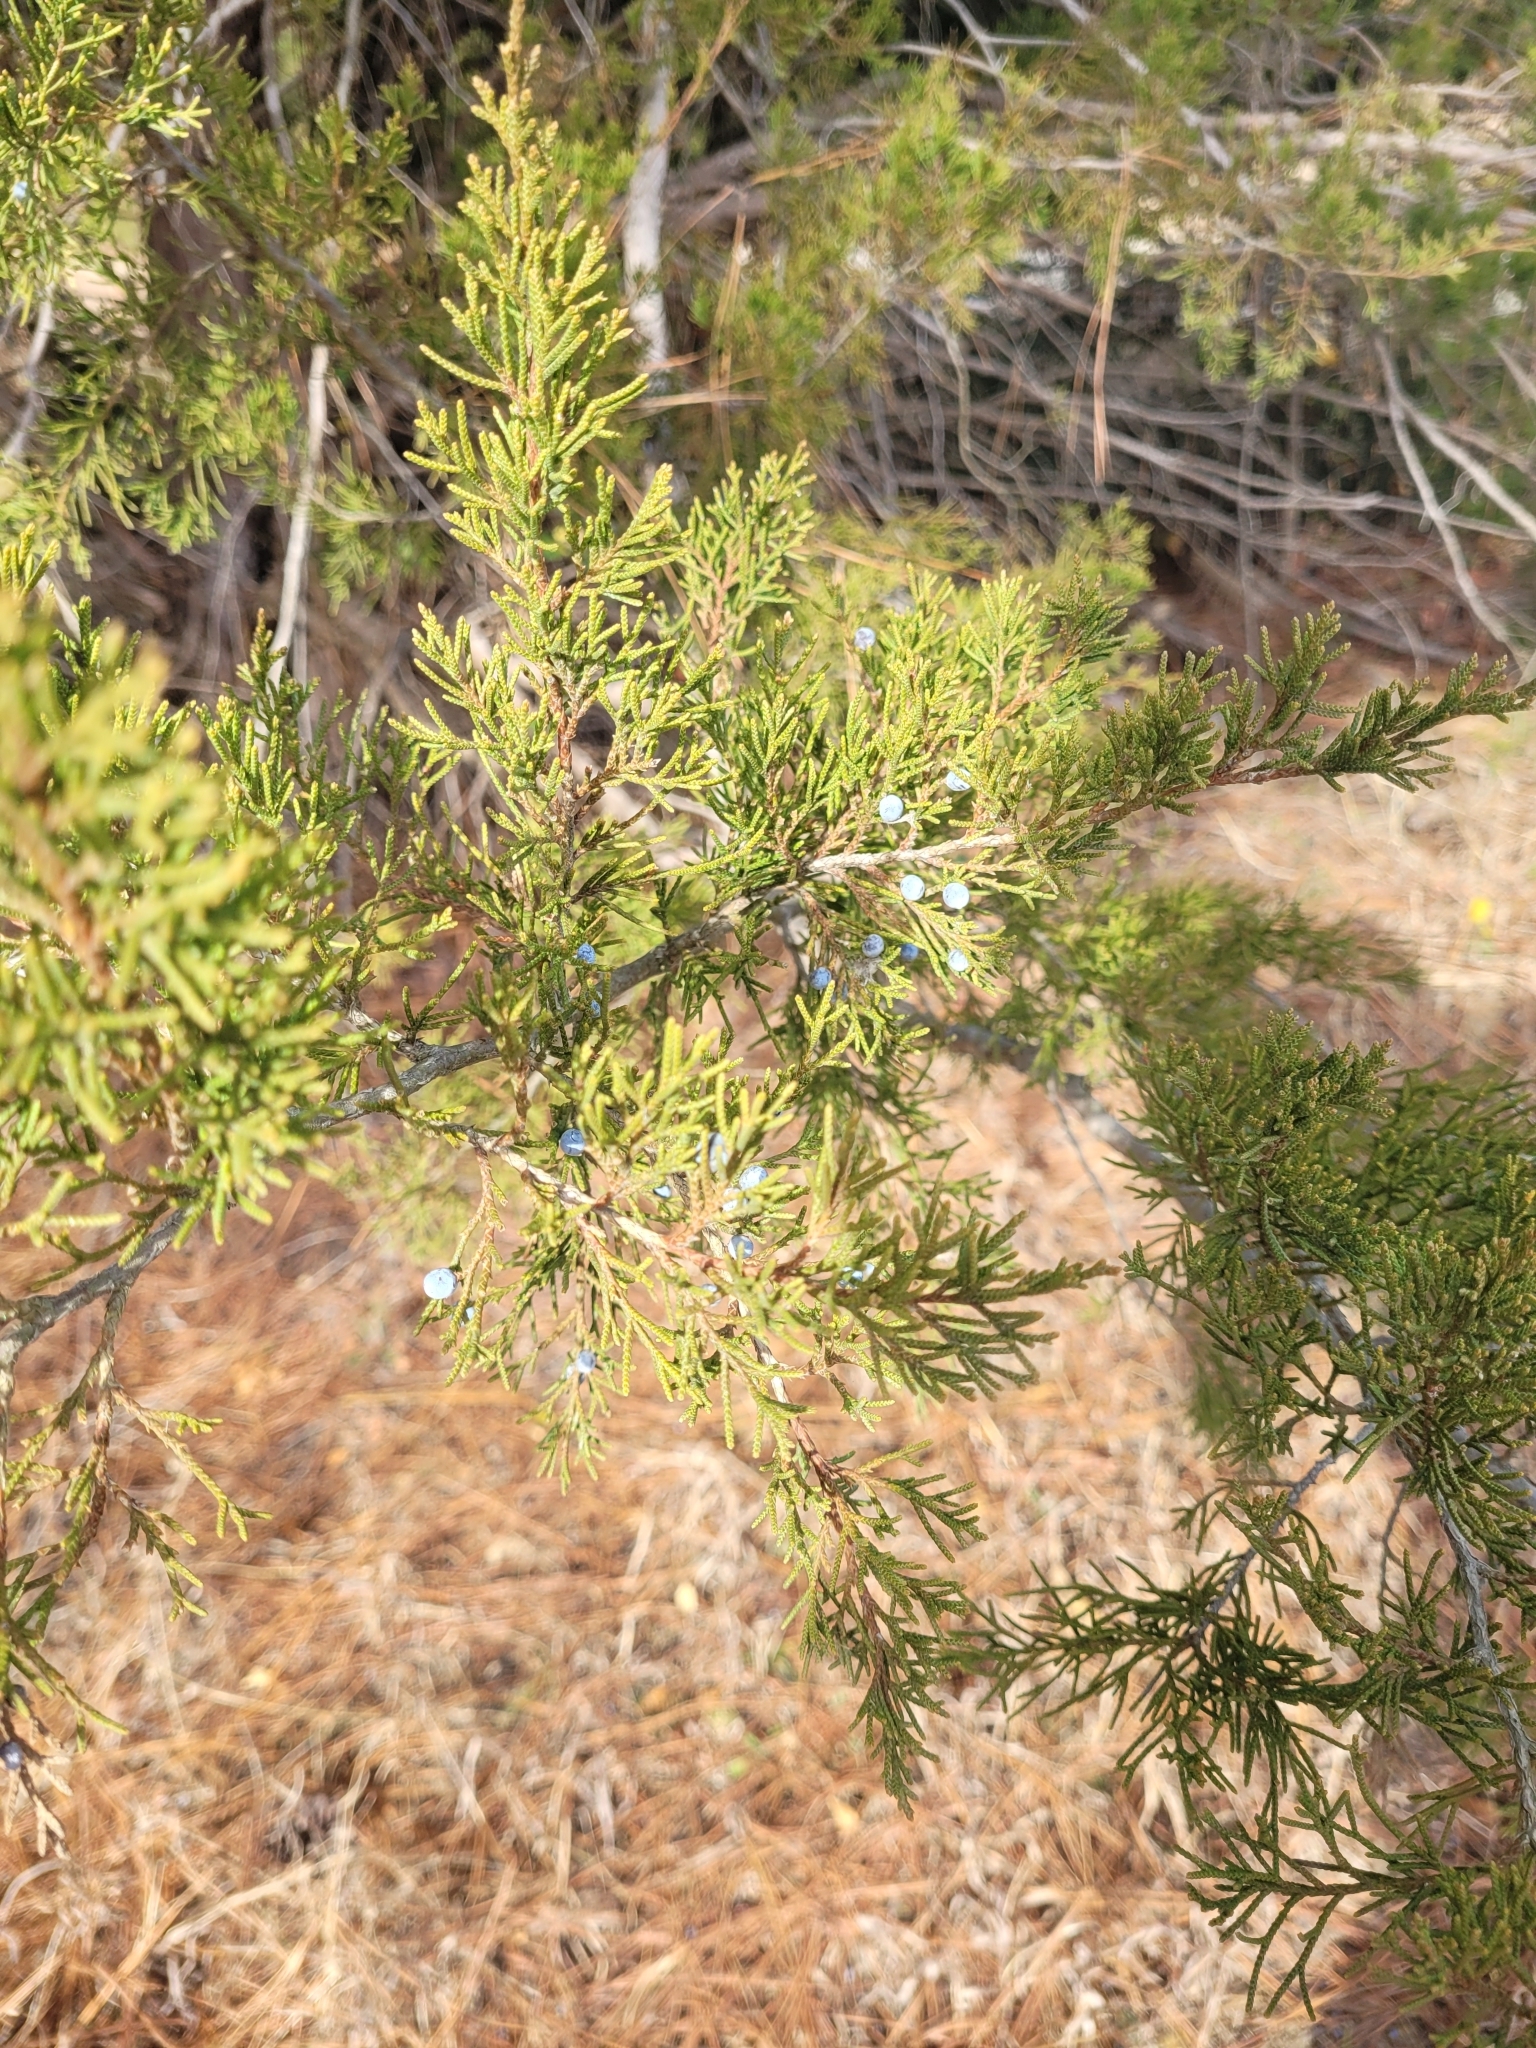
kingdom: Plantae
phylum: Tracheophyta
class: Pinopsida
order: Pinales
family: Cupressaceae
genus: Juniperus
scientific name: Juniperus virginiana
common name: Red juniper
